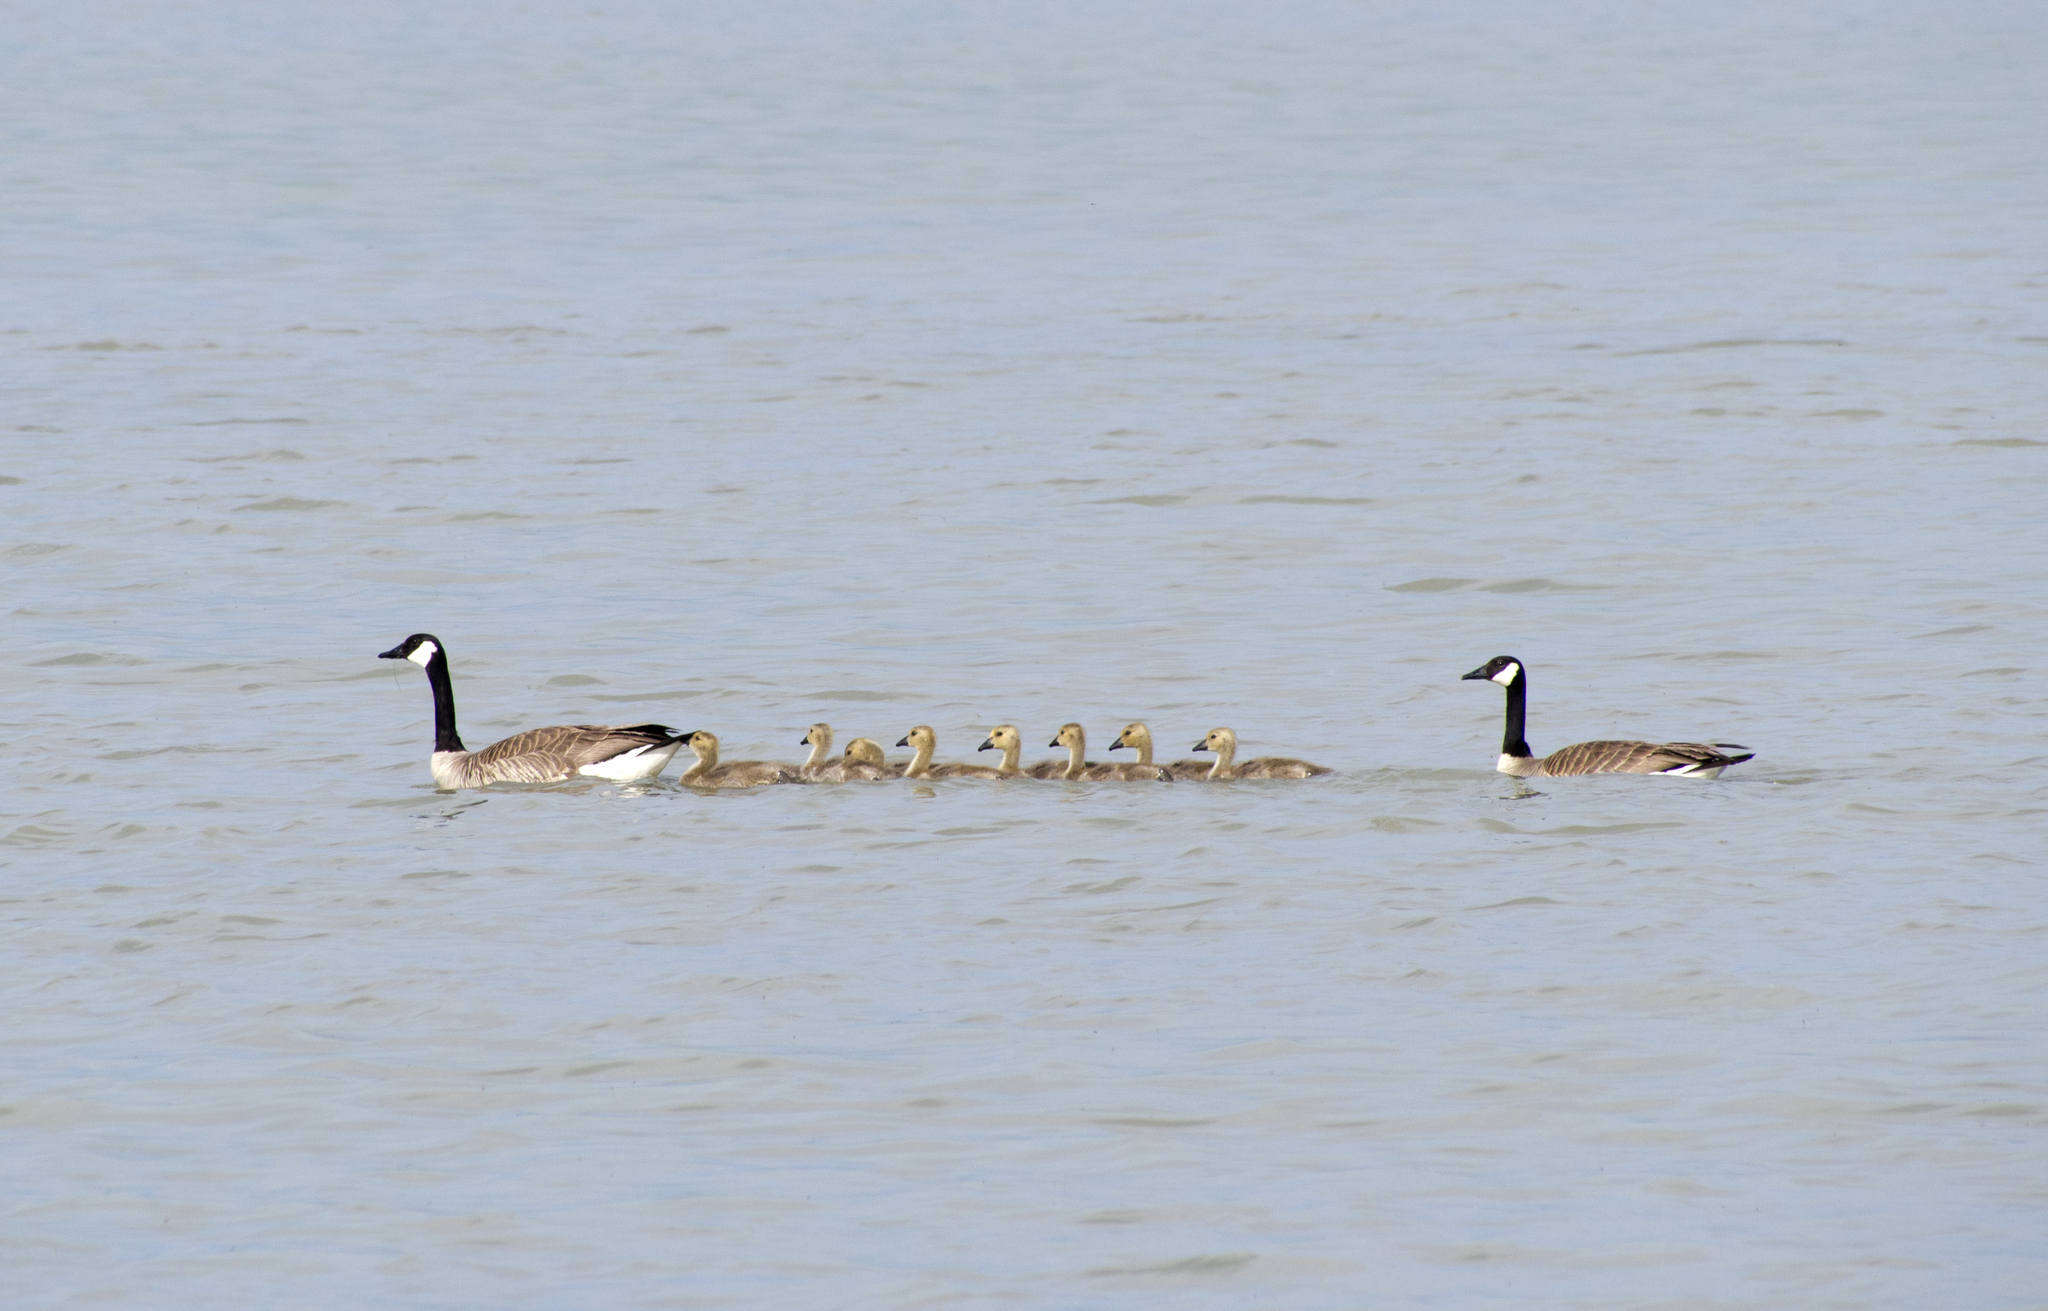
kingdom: Animalia
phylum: Chordata
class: Aves
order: Anseriformes
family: Anatidae
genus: Branta
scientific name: Branta canadensis
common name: Canada goose
